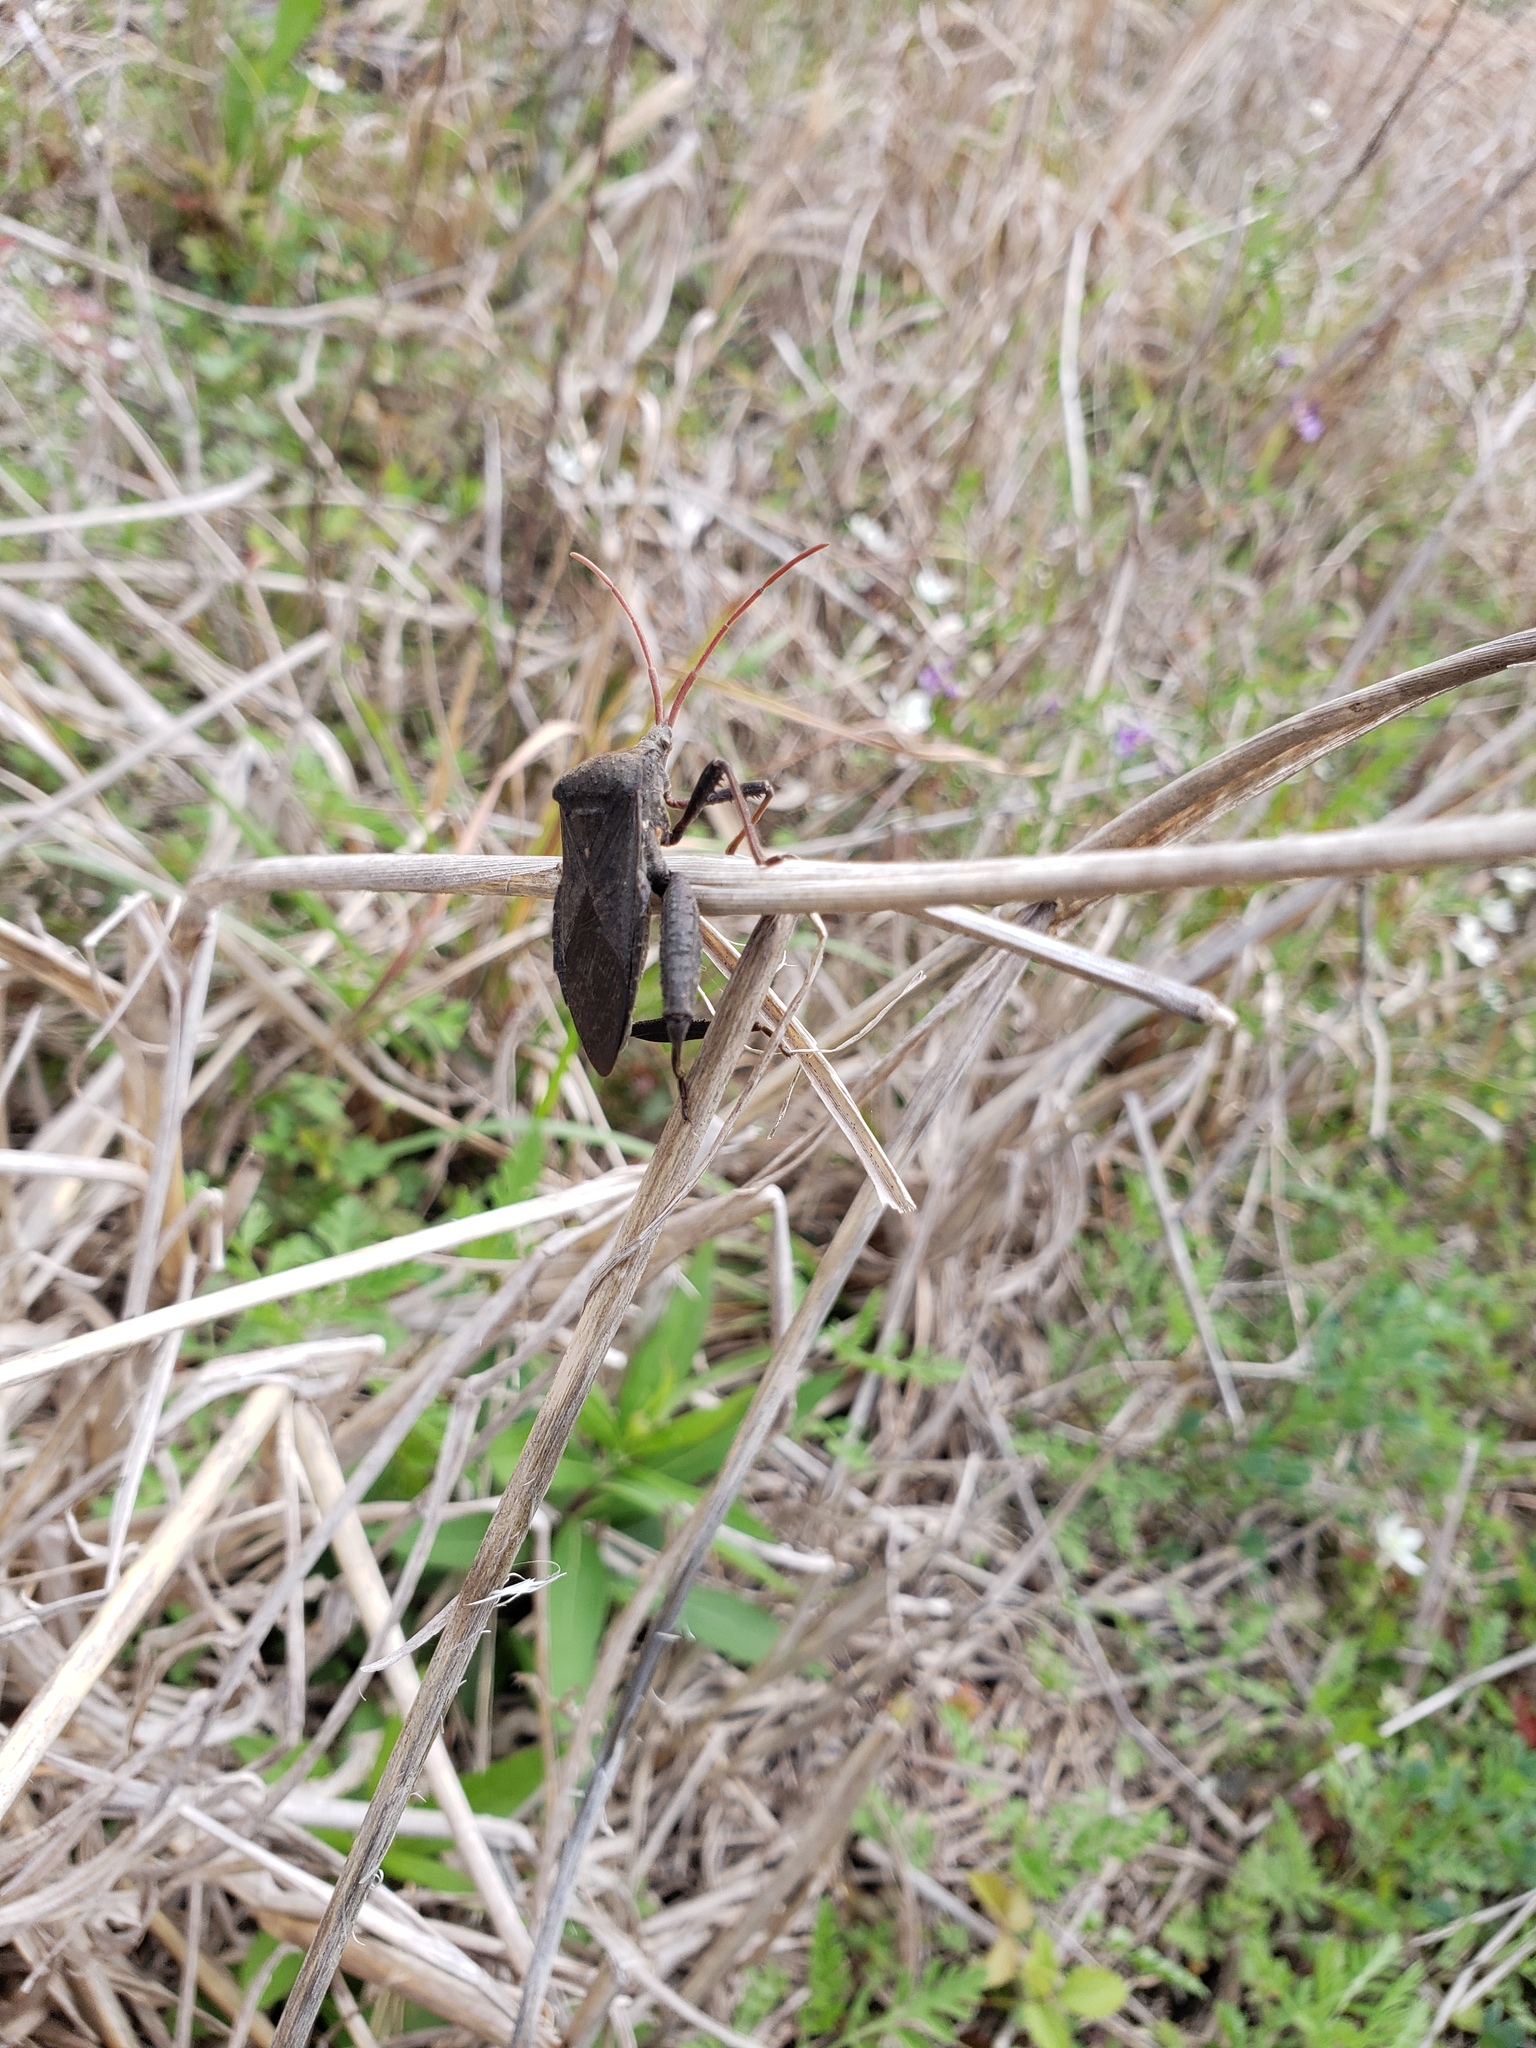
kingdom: Animalia
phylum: Arthropoda
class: Insecta
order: Hemiptera
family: Coreidae
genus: Acanthocephala
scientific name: Acanthocephala femorata
